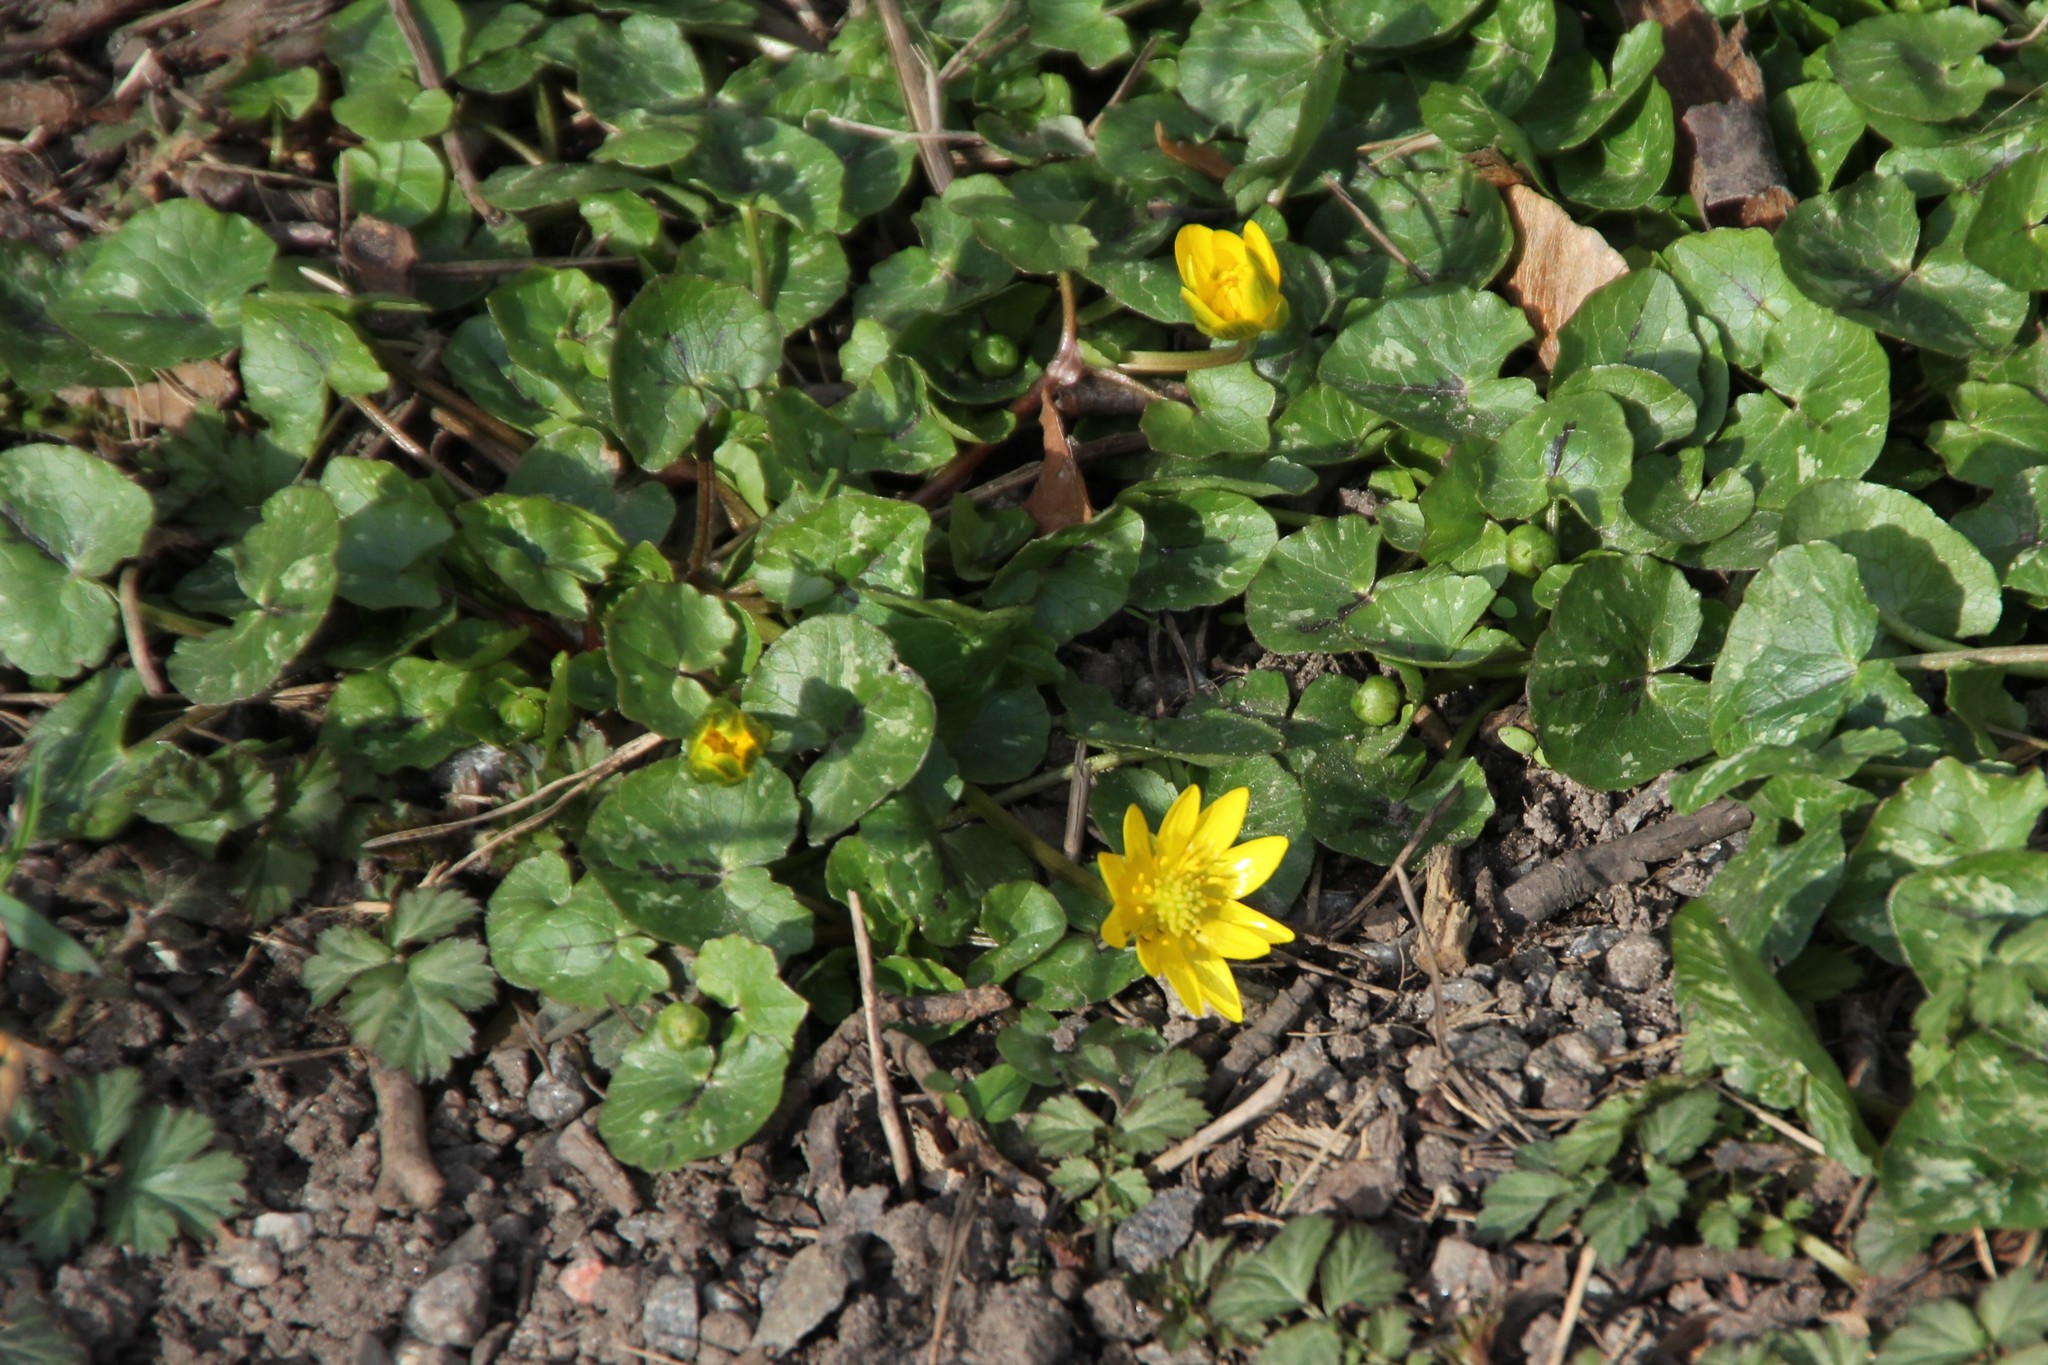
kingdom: Plantae
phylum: Tracheophyta
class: Magnoliopsida
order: Ranunculales
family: Ranunculaceae
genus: Ficaria
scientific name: Ficaria verna
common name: Lesser celandine
